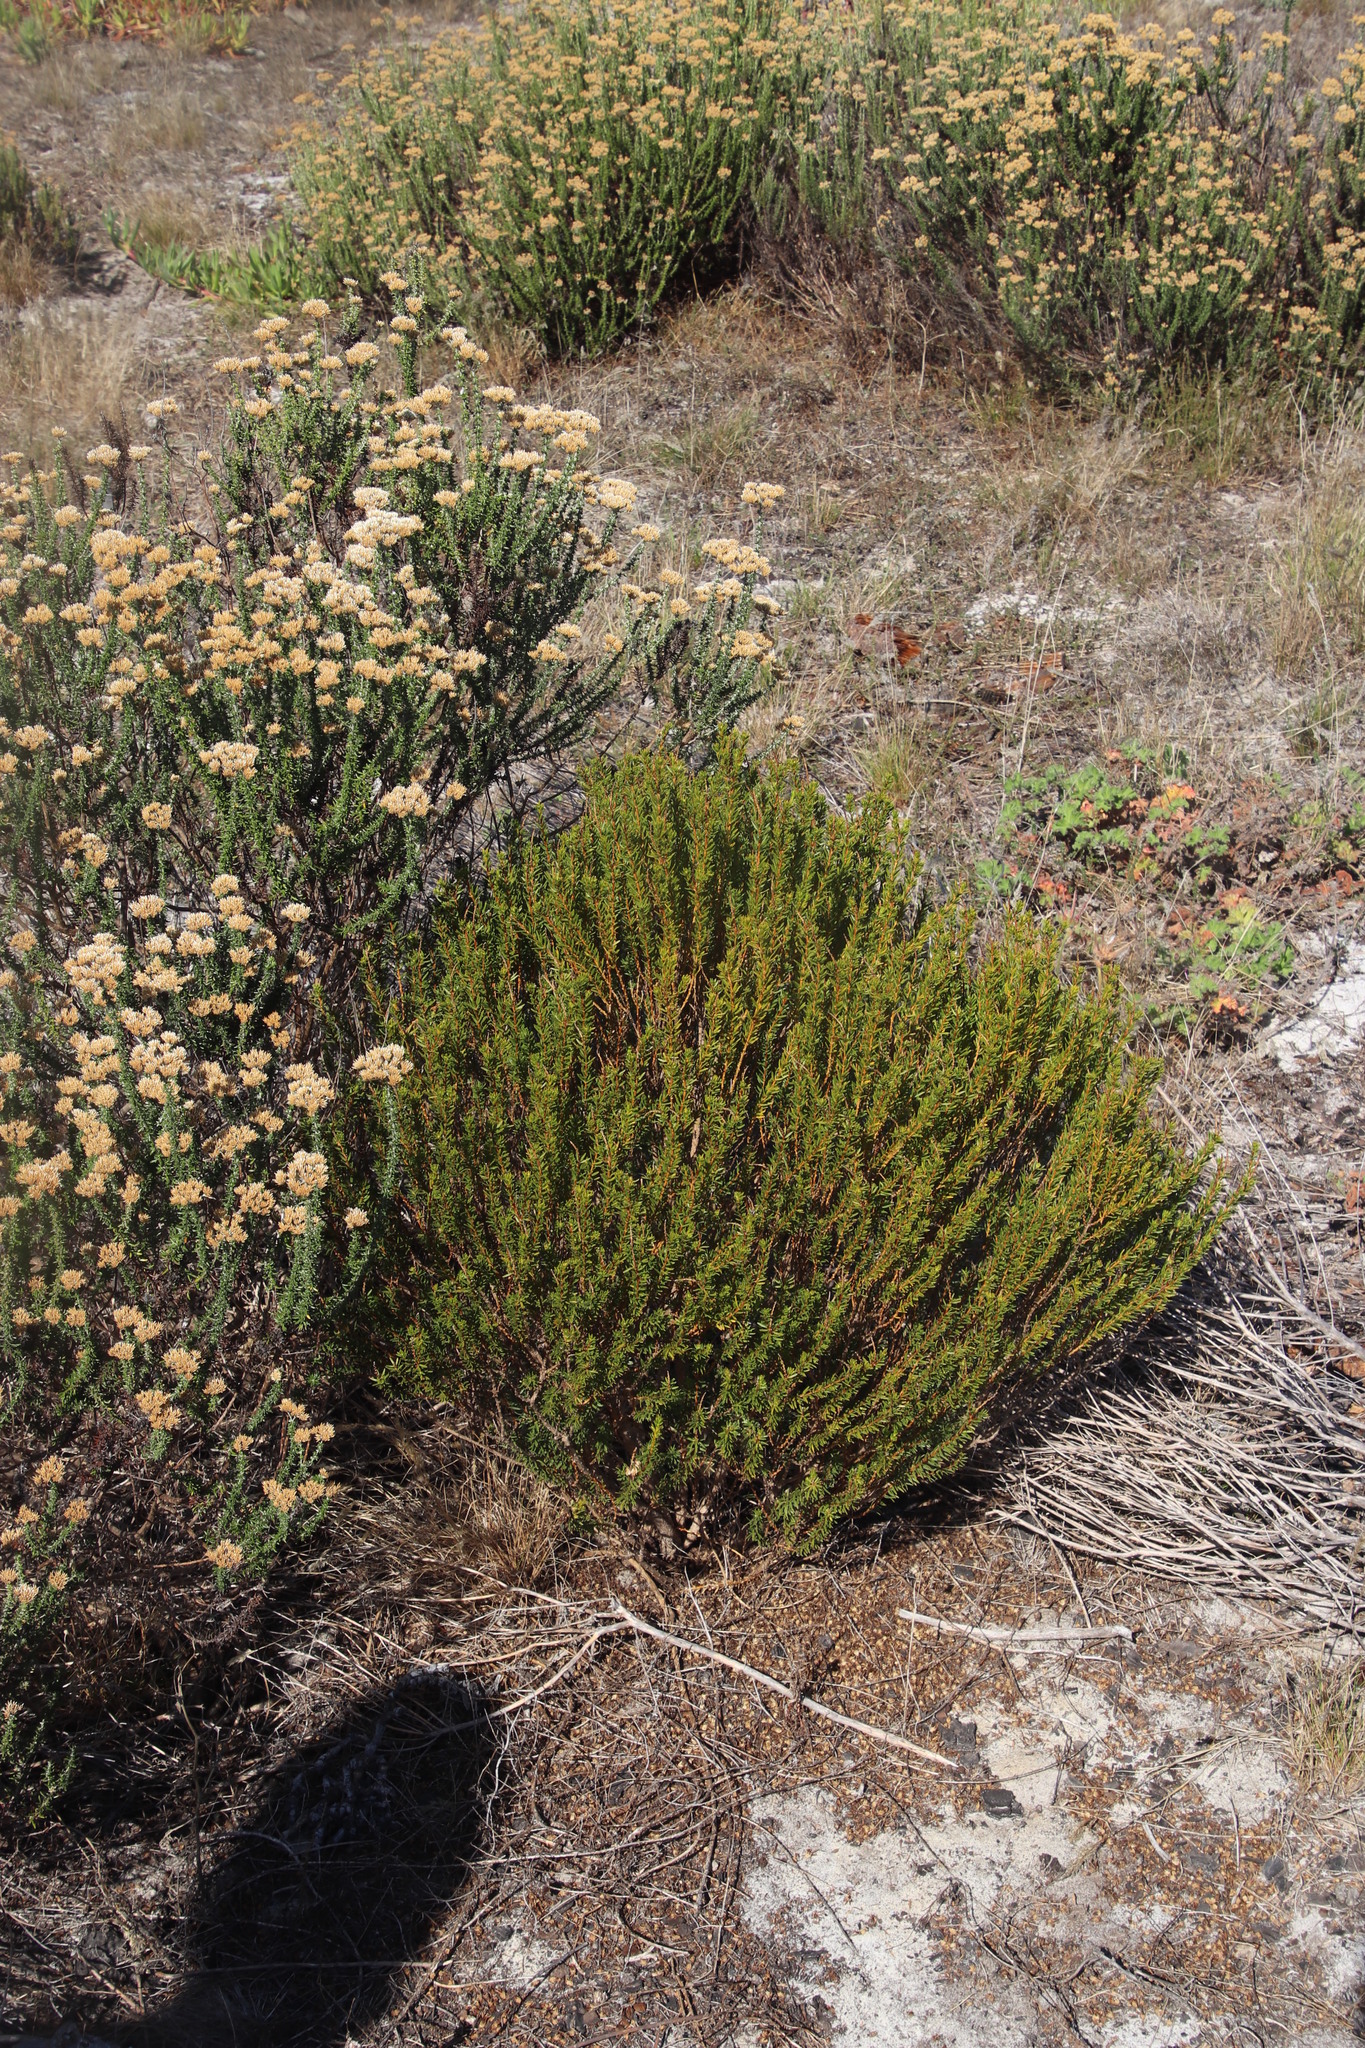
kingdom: Plantae
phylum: Tracheophyta
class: Magnoliopsida
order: Fabales
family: Fabaceae
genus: Aspalathus
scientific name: Aspalathus callosa
